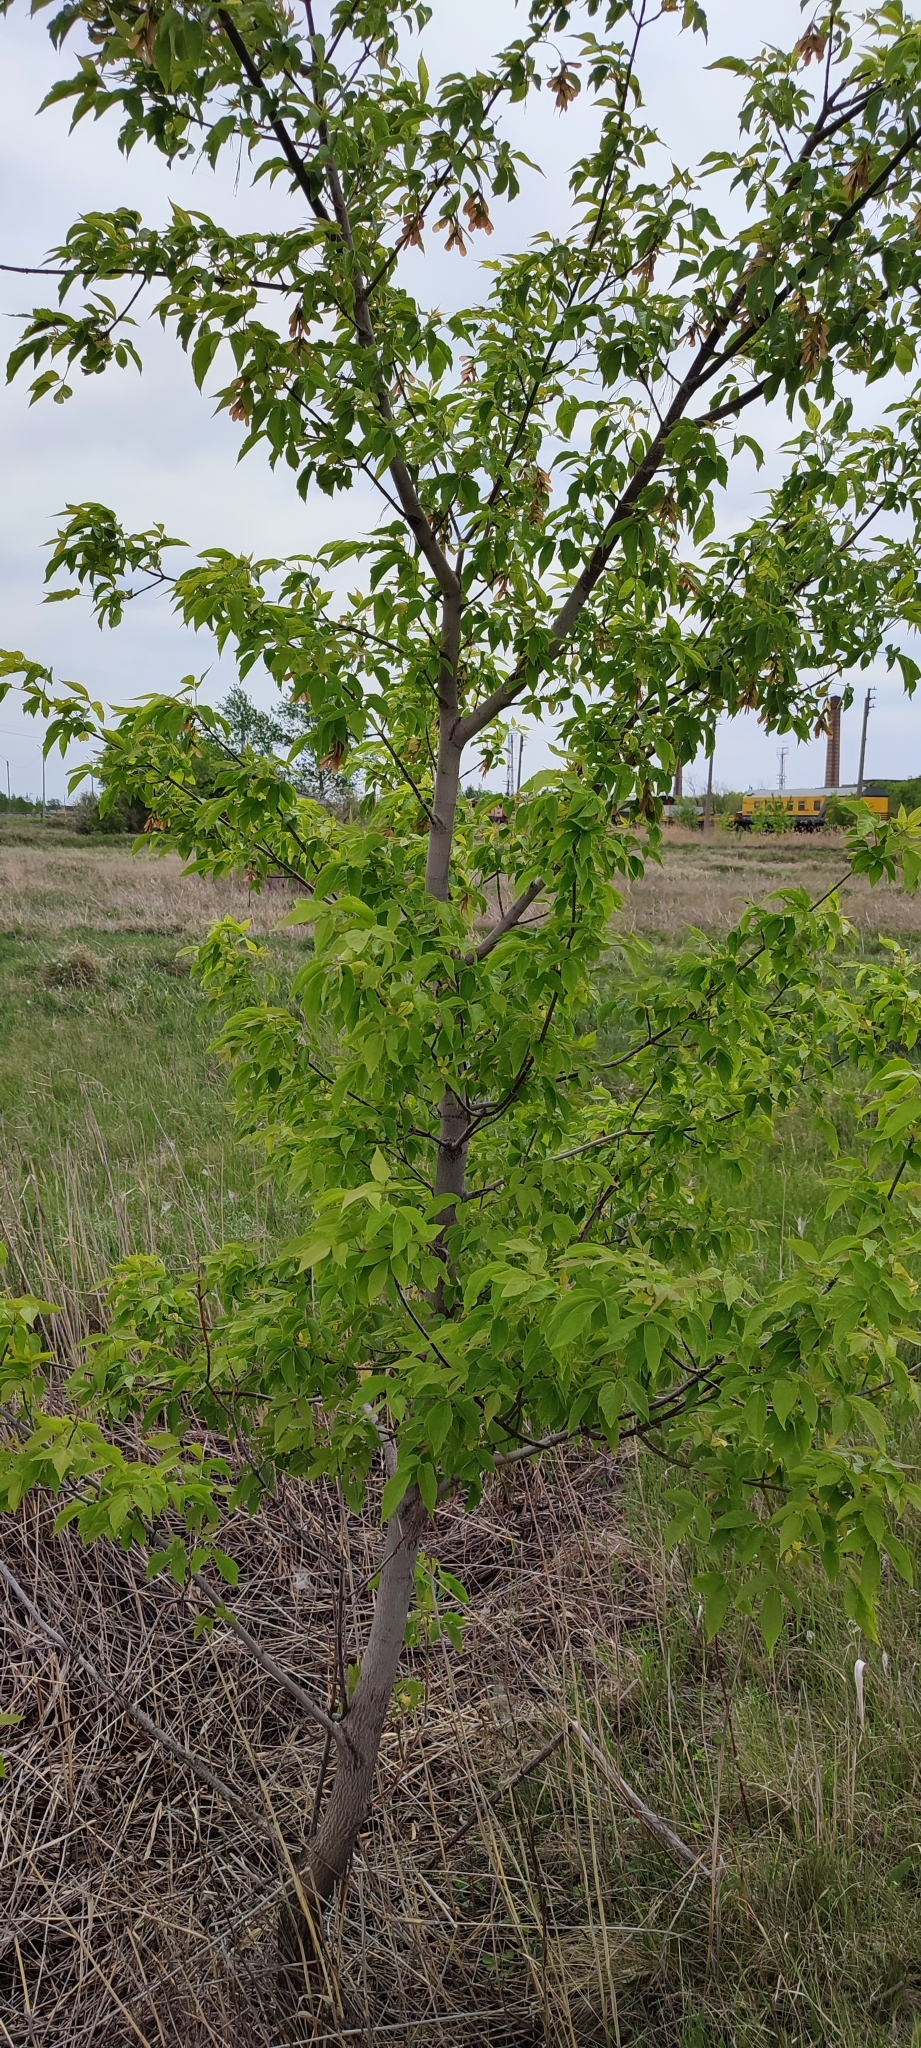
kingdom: Plantae
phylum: Tracheophyta
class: Magnoliopsida
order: Sapindales
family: Sapindaceae
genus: Acer
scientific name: Acer negundo
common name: Ashleaf maple
